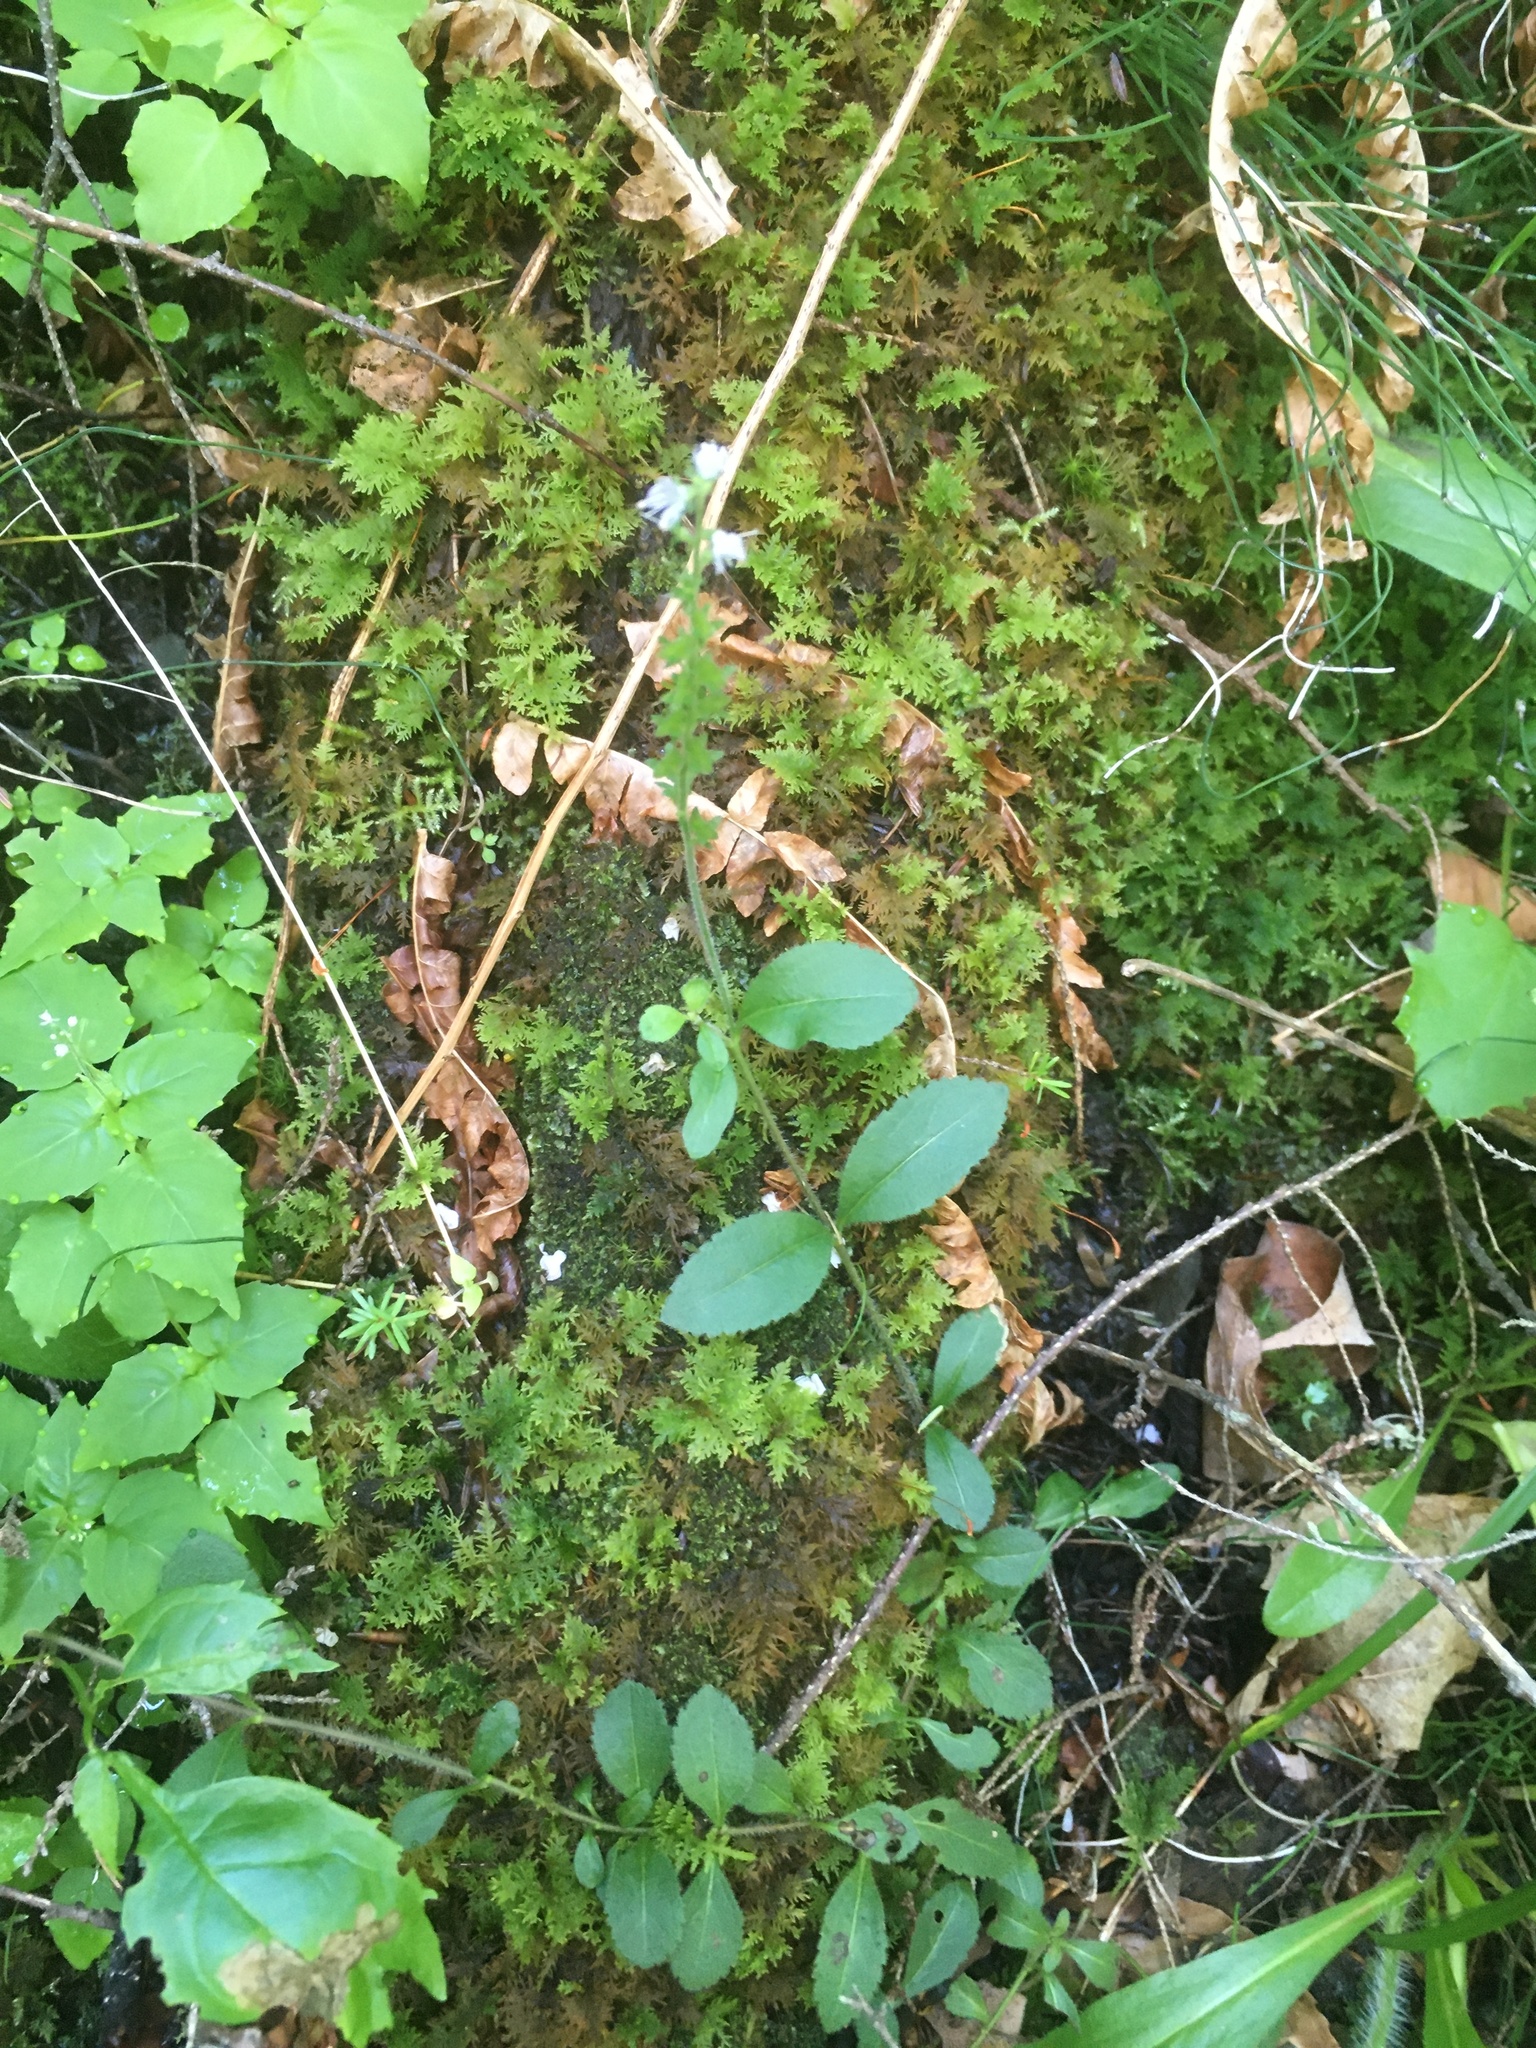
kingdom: Plantae
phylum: Tracheophyta
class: Magnoliopsida
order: Lamiales
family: Plantaginaceae
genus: Veronica
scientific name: Veronica officinalis
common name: Common speedwell
